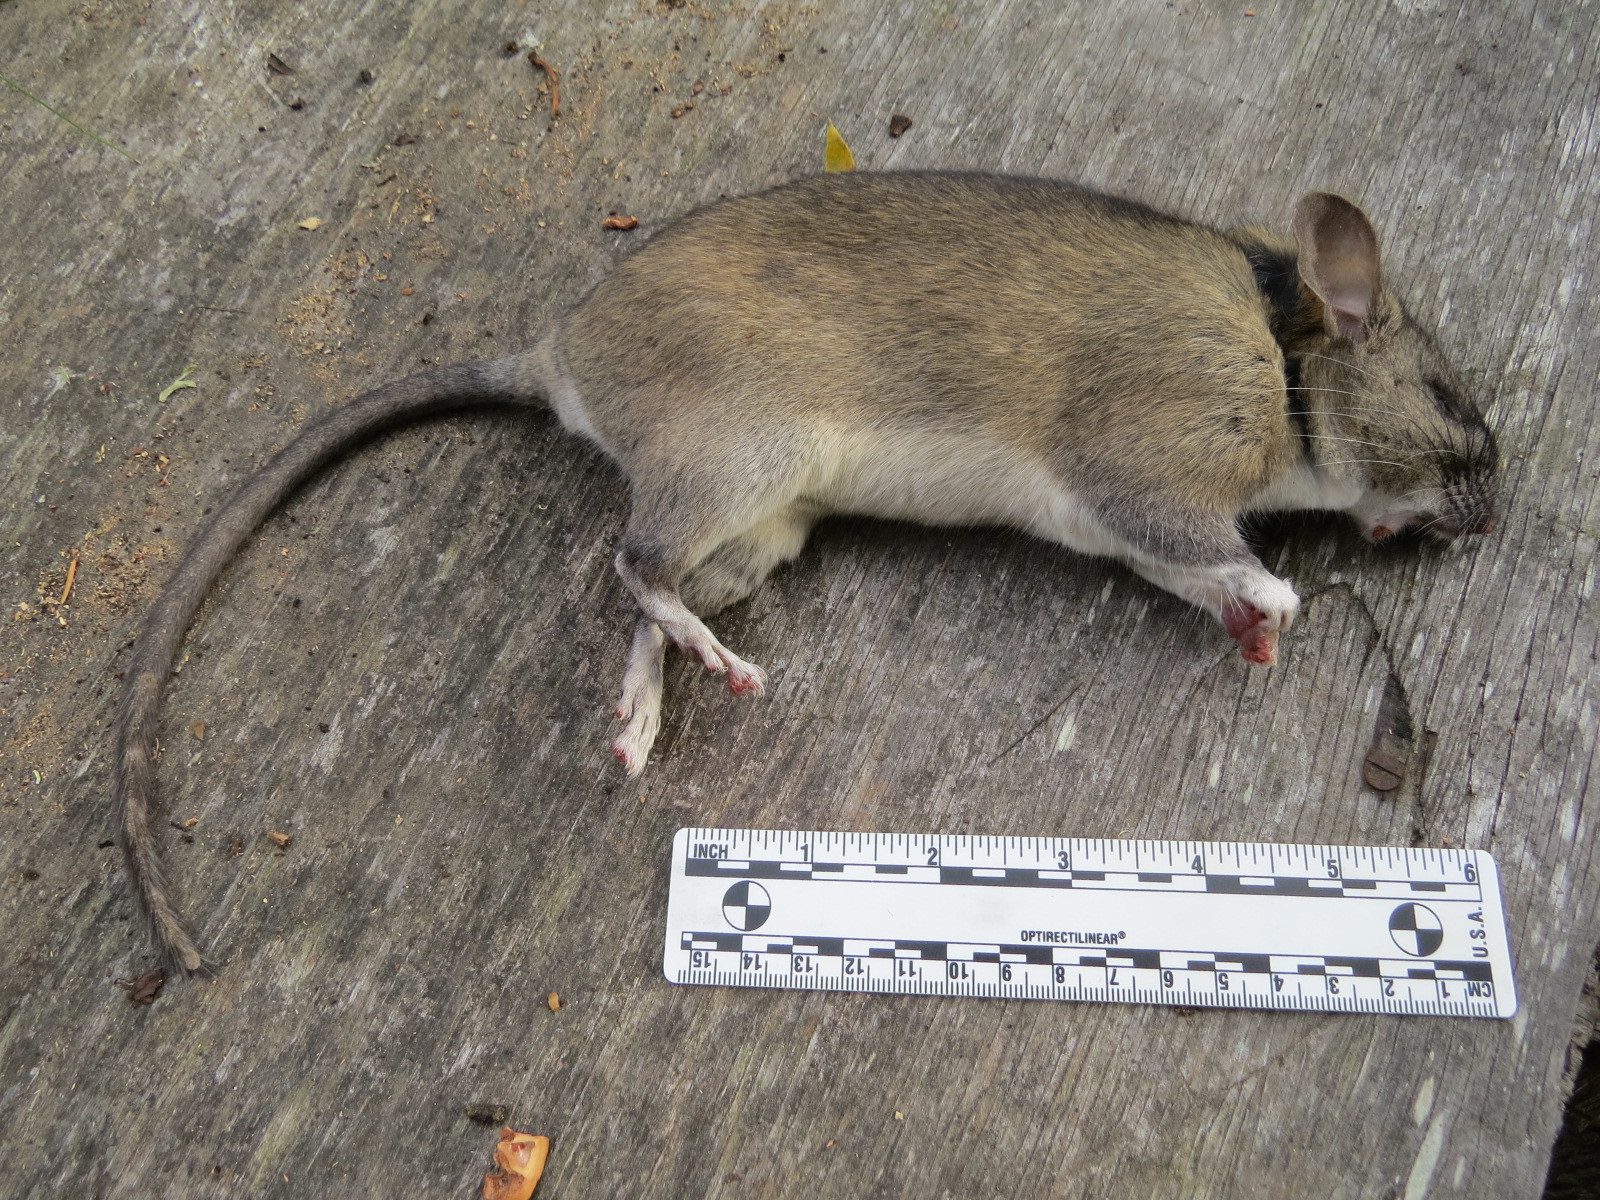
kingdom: Animalia
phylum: Chordata
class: Mammalia
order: Rodentia
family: Cricetidae
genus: Neotoma
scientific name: Neotoma fuscipes
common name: Dusky-footed woodrat
